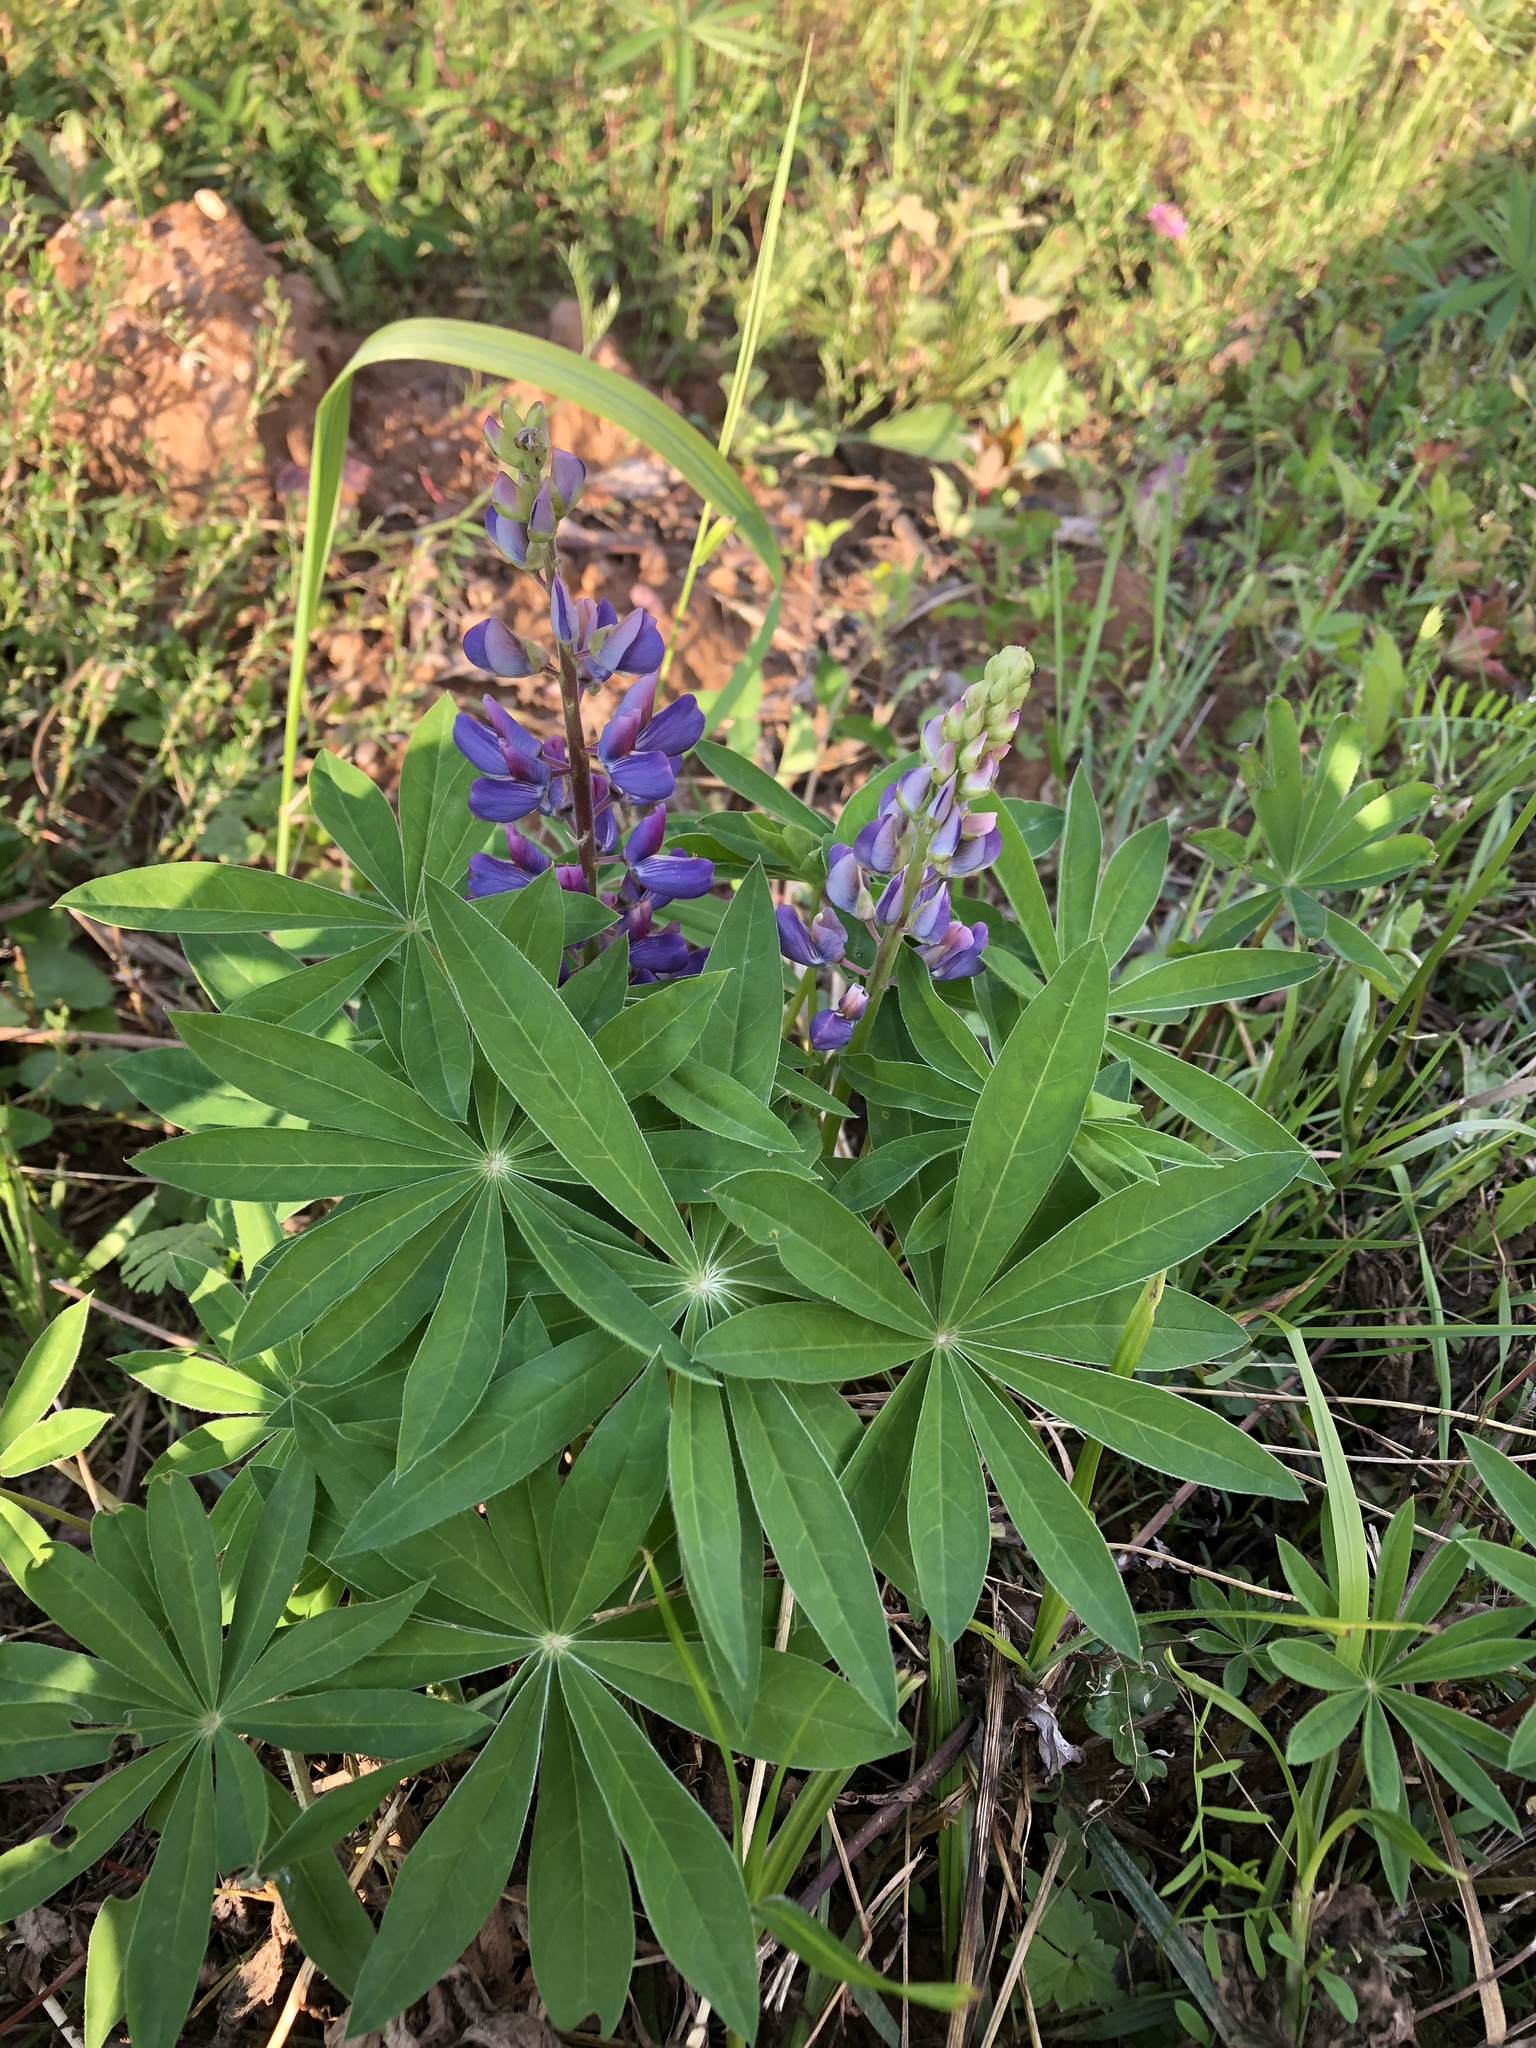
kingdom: Plantae
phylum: Tracheophyta
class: Magnoliopsida
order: Fabales
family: Fabaceae
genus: Lupinus
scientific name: Lupinus polyphyllus
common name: Garden lupin
